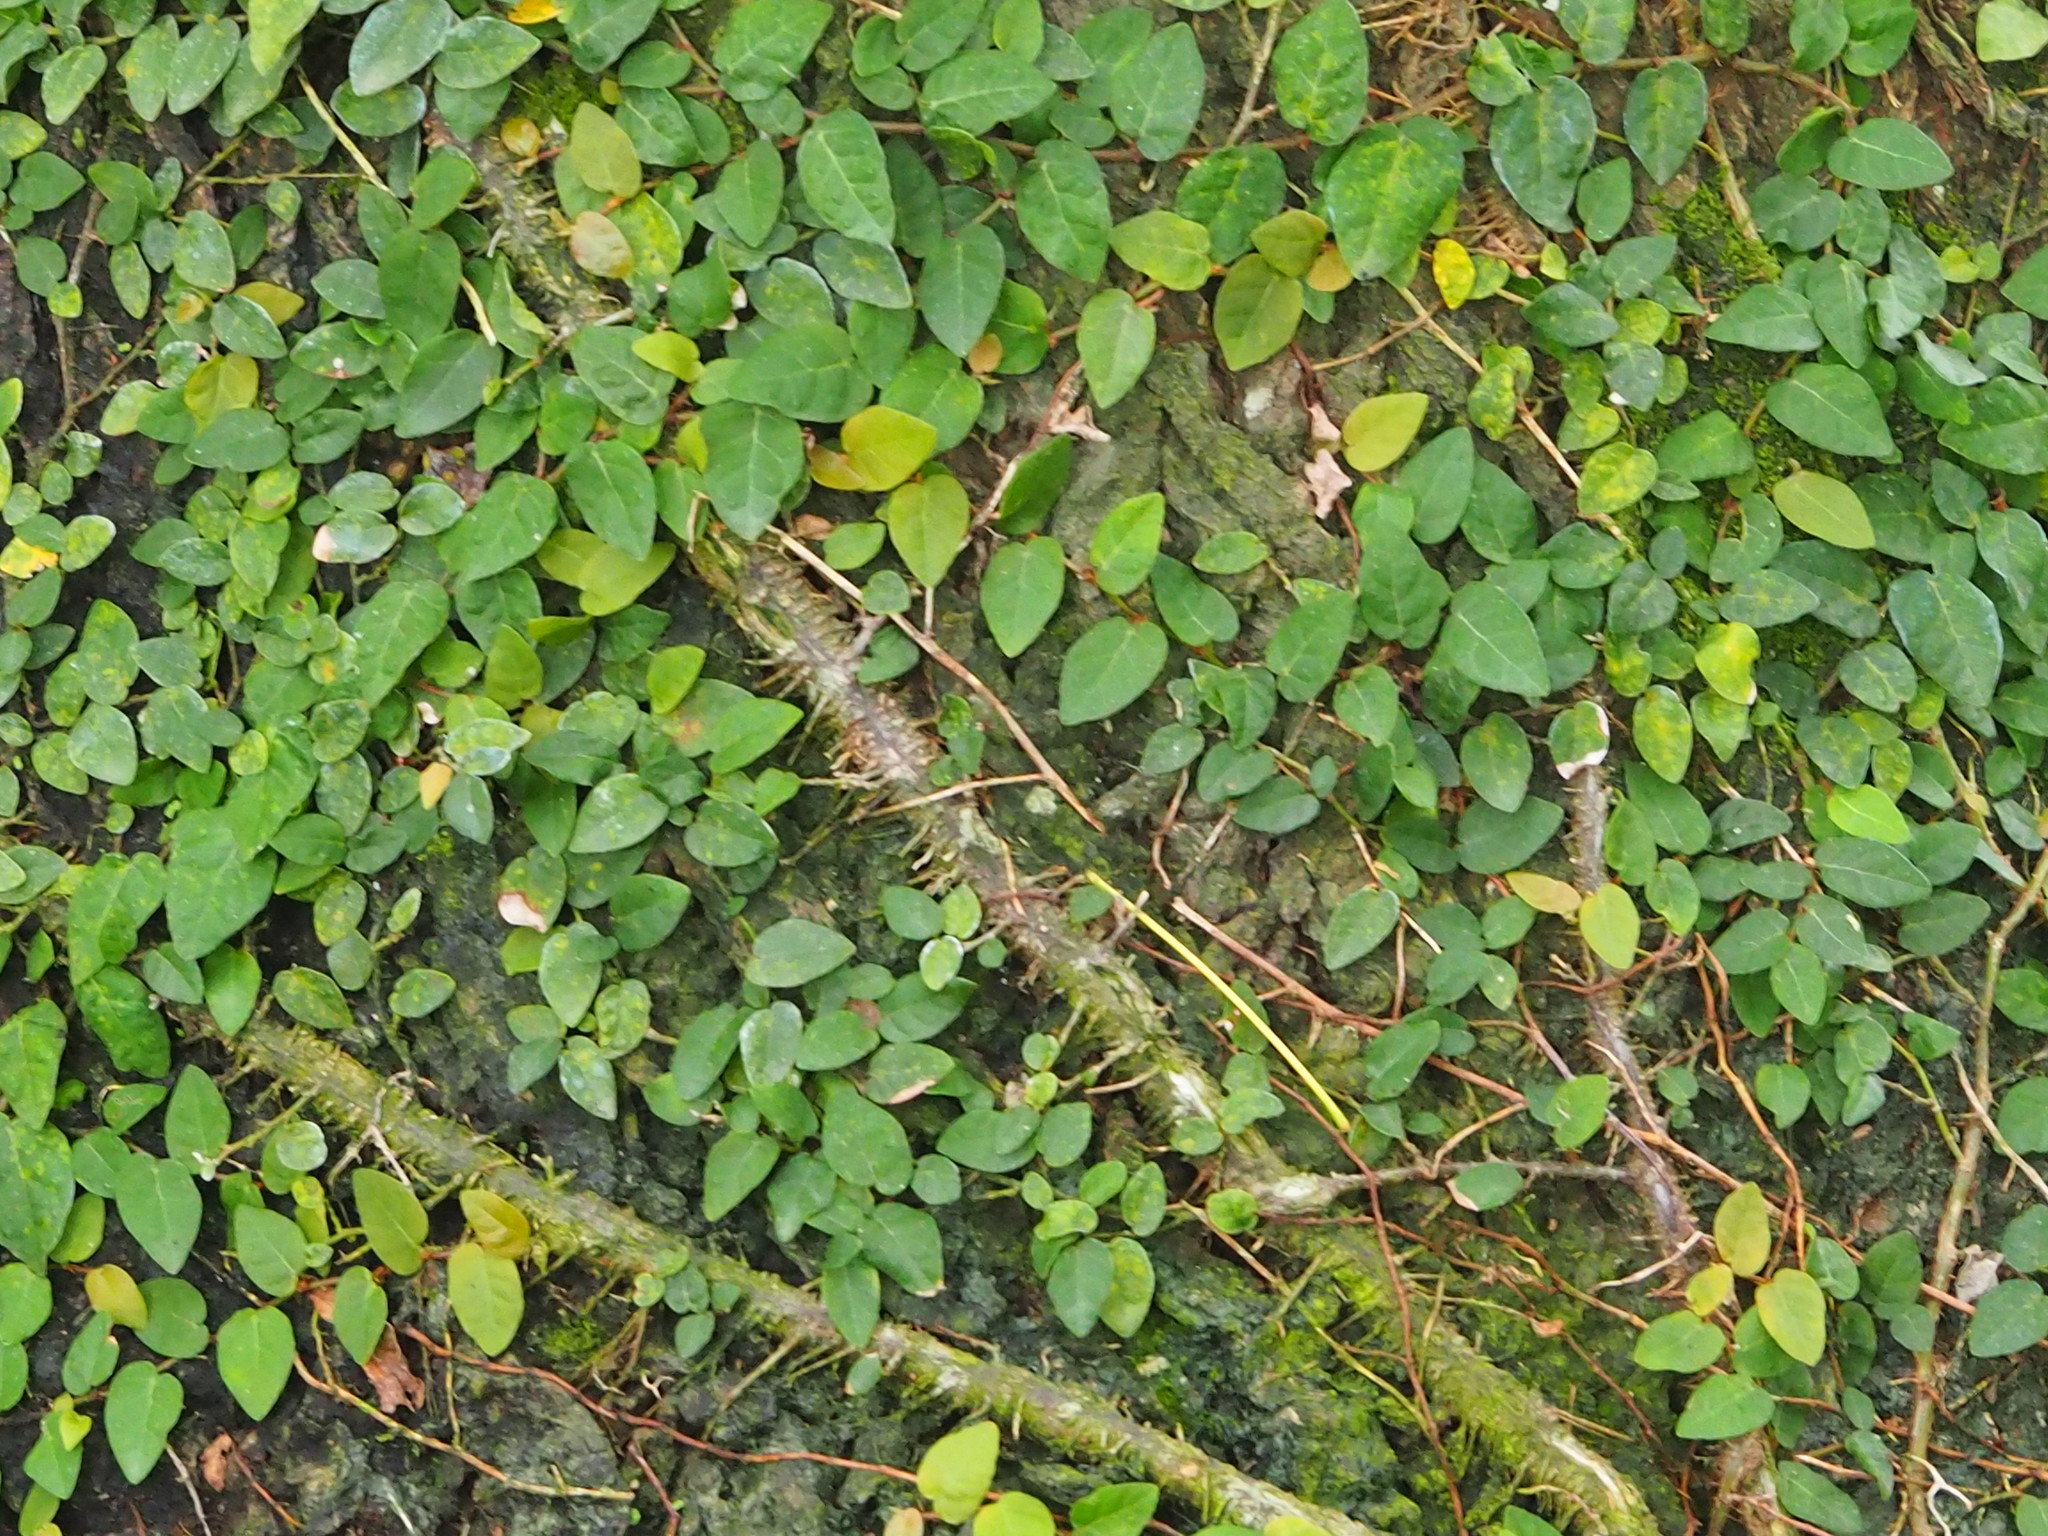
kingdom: Plantae
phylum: Tracheophyta
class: Magnoliopsida
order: Rosales
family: Moraceae
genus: Ficus
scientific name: Ficus pumila
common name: Climbingfig
